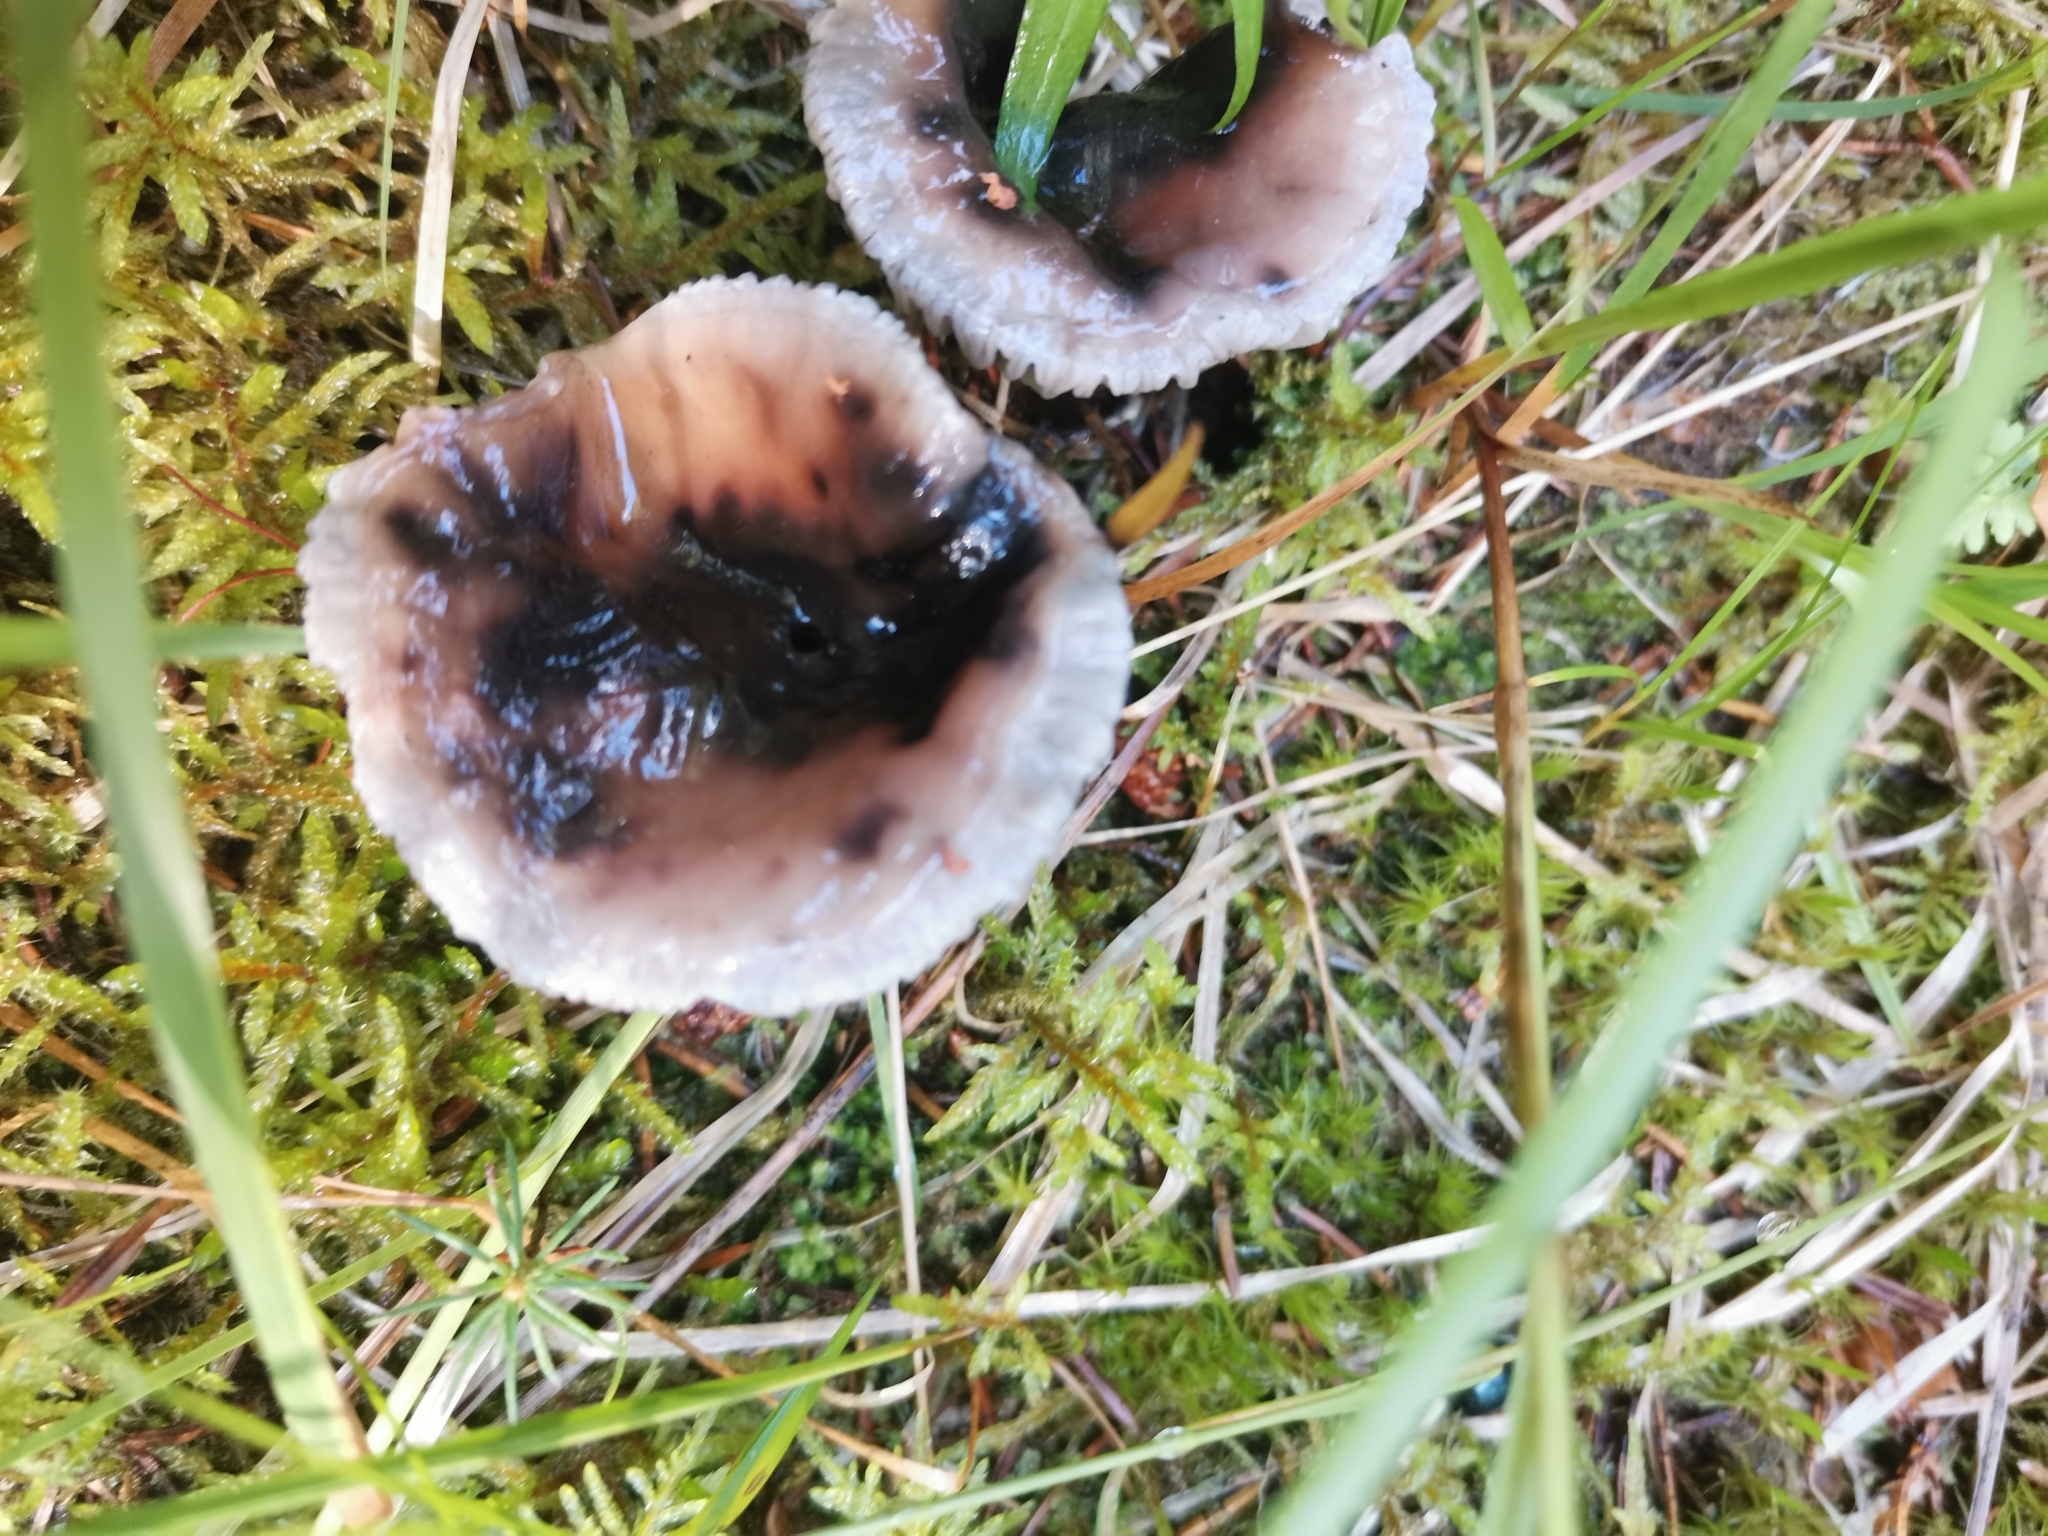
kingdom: Fungi
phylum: Basidiomycota
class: Agaricomycetes
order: Boletales
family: Gomphidiaceae
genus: Gomphidius
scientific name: Gomphidius glutinosus
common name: Slimy spike
